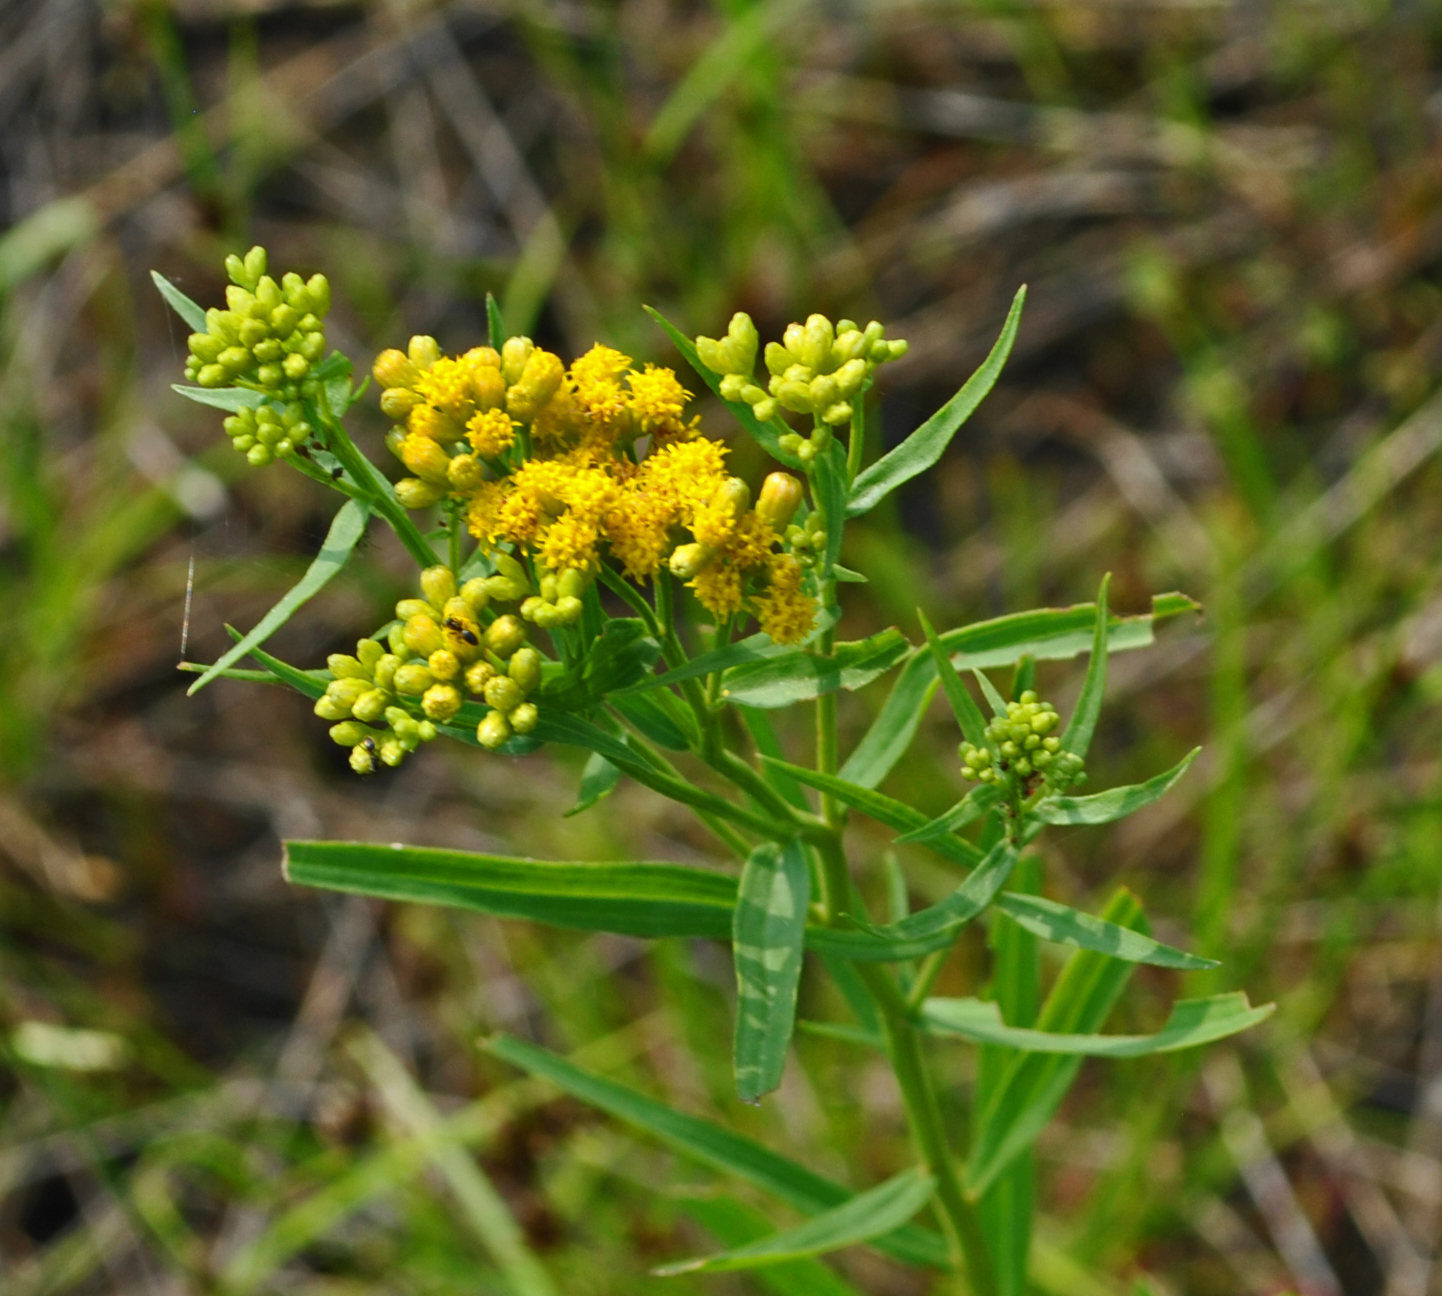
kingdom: Plantae
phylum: Tracheophyta
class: Magnoliopsida
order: Asterales
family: Asteraceae
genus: Euthamia
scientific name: Euthamia graminifolia
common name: Common goldentop
